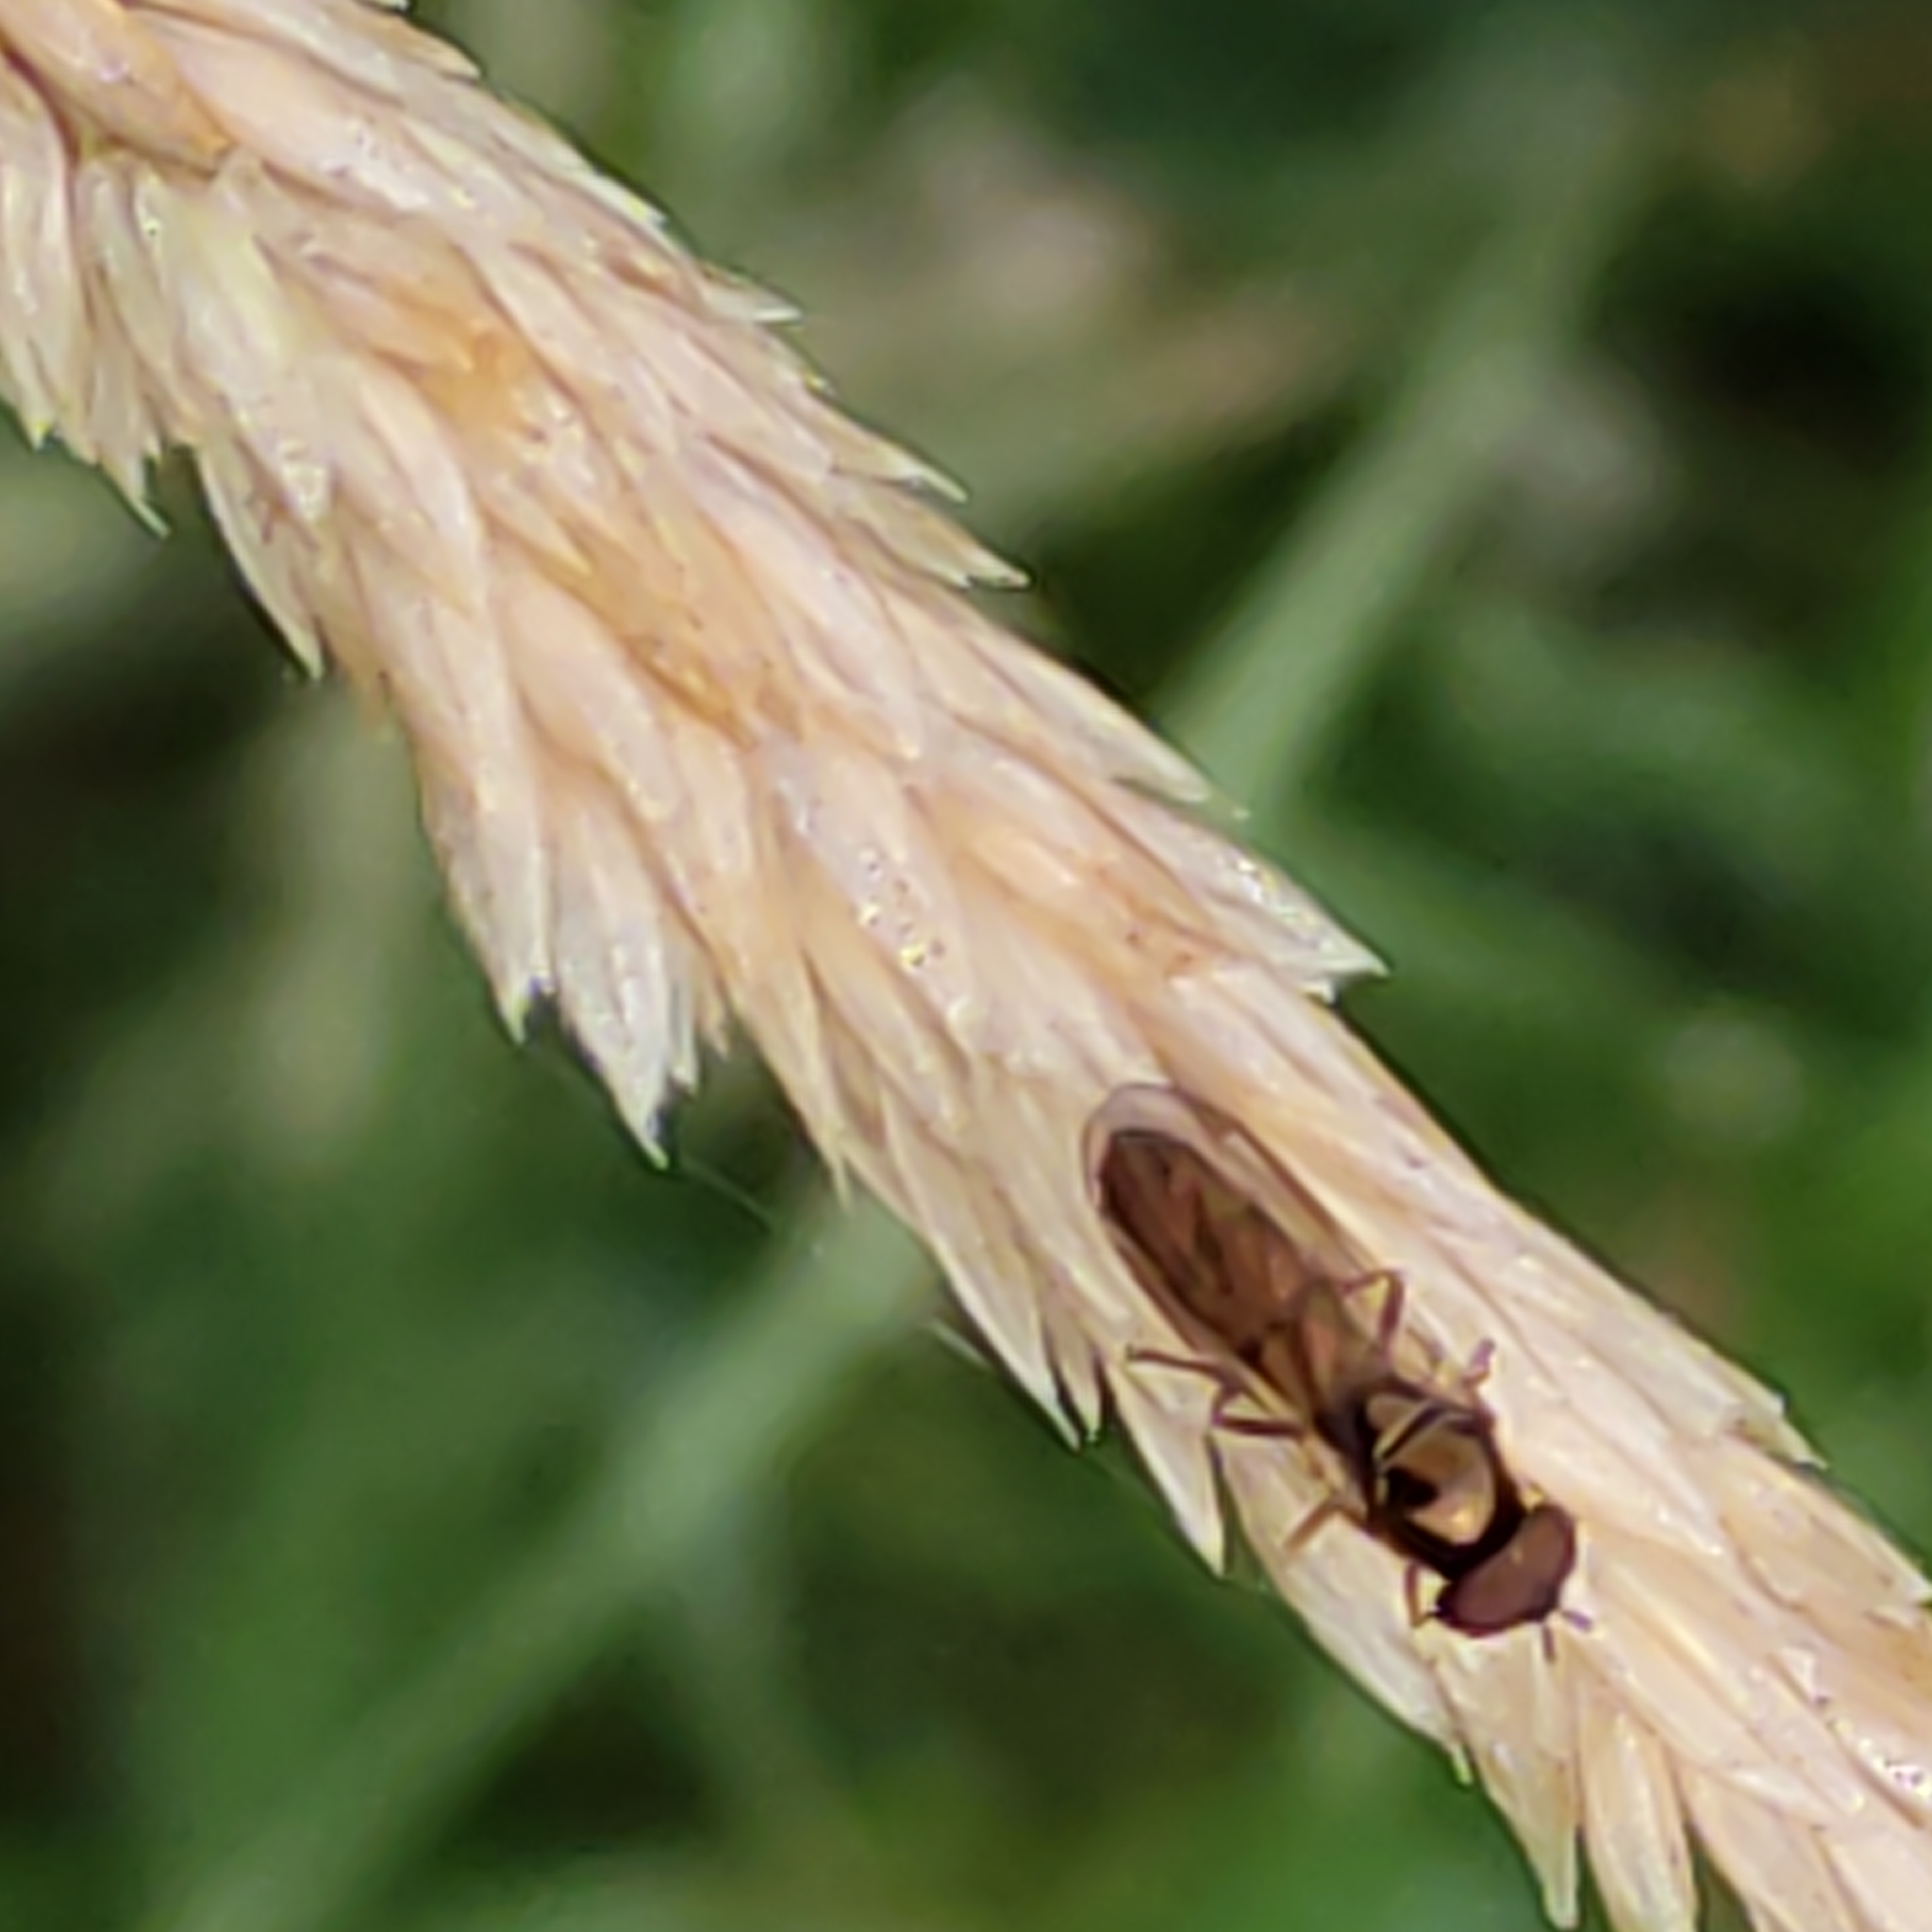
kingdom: Animalia
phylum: Arthropoda
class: Insecta
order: Diptera
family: Syrphidae
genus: Melanostoma
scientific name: Melanostoma fasciatum
